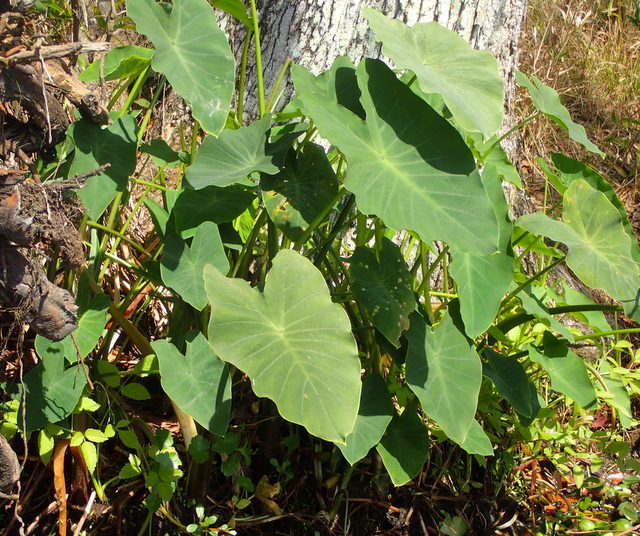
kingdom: Plantae
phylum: Tracheophyta
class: Liliopsida
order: Alismatales
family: Araceae
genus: Colocasia
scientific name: Colocasia esculenta
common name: Taro
